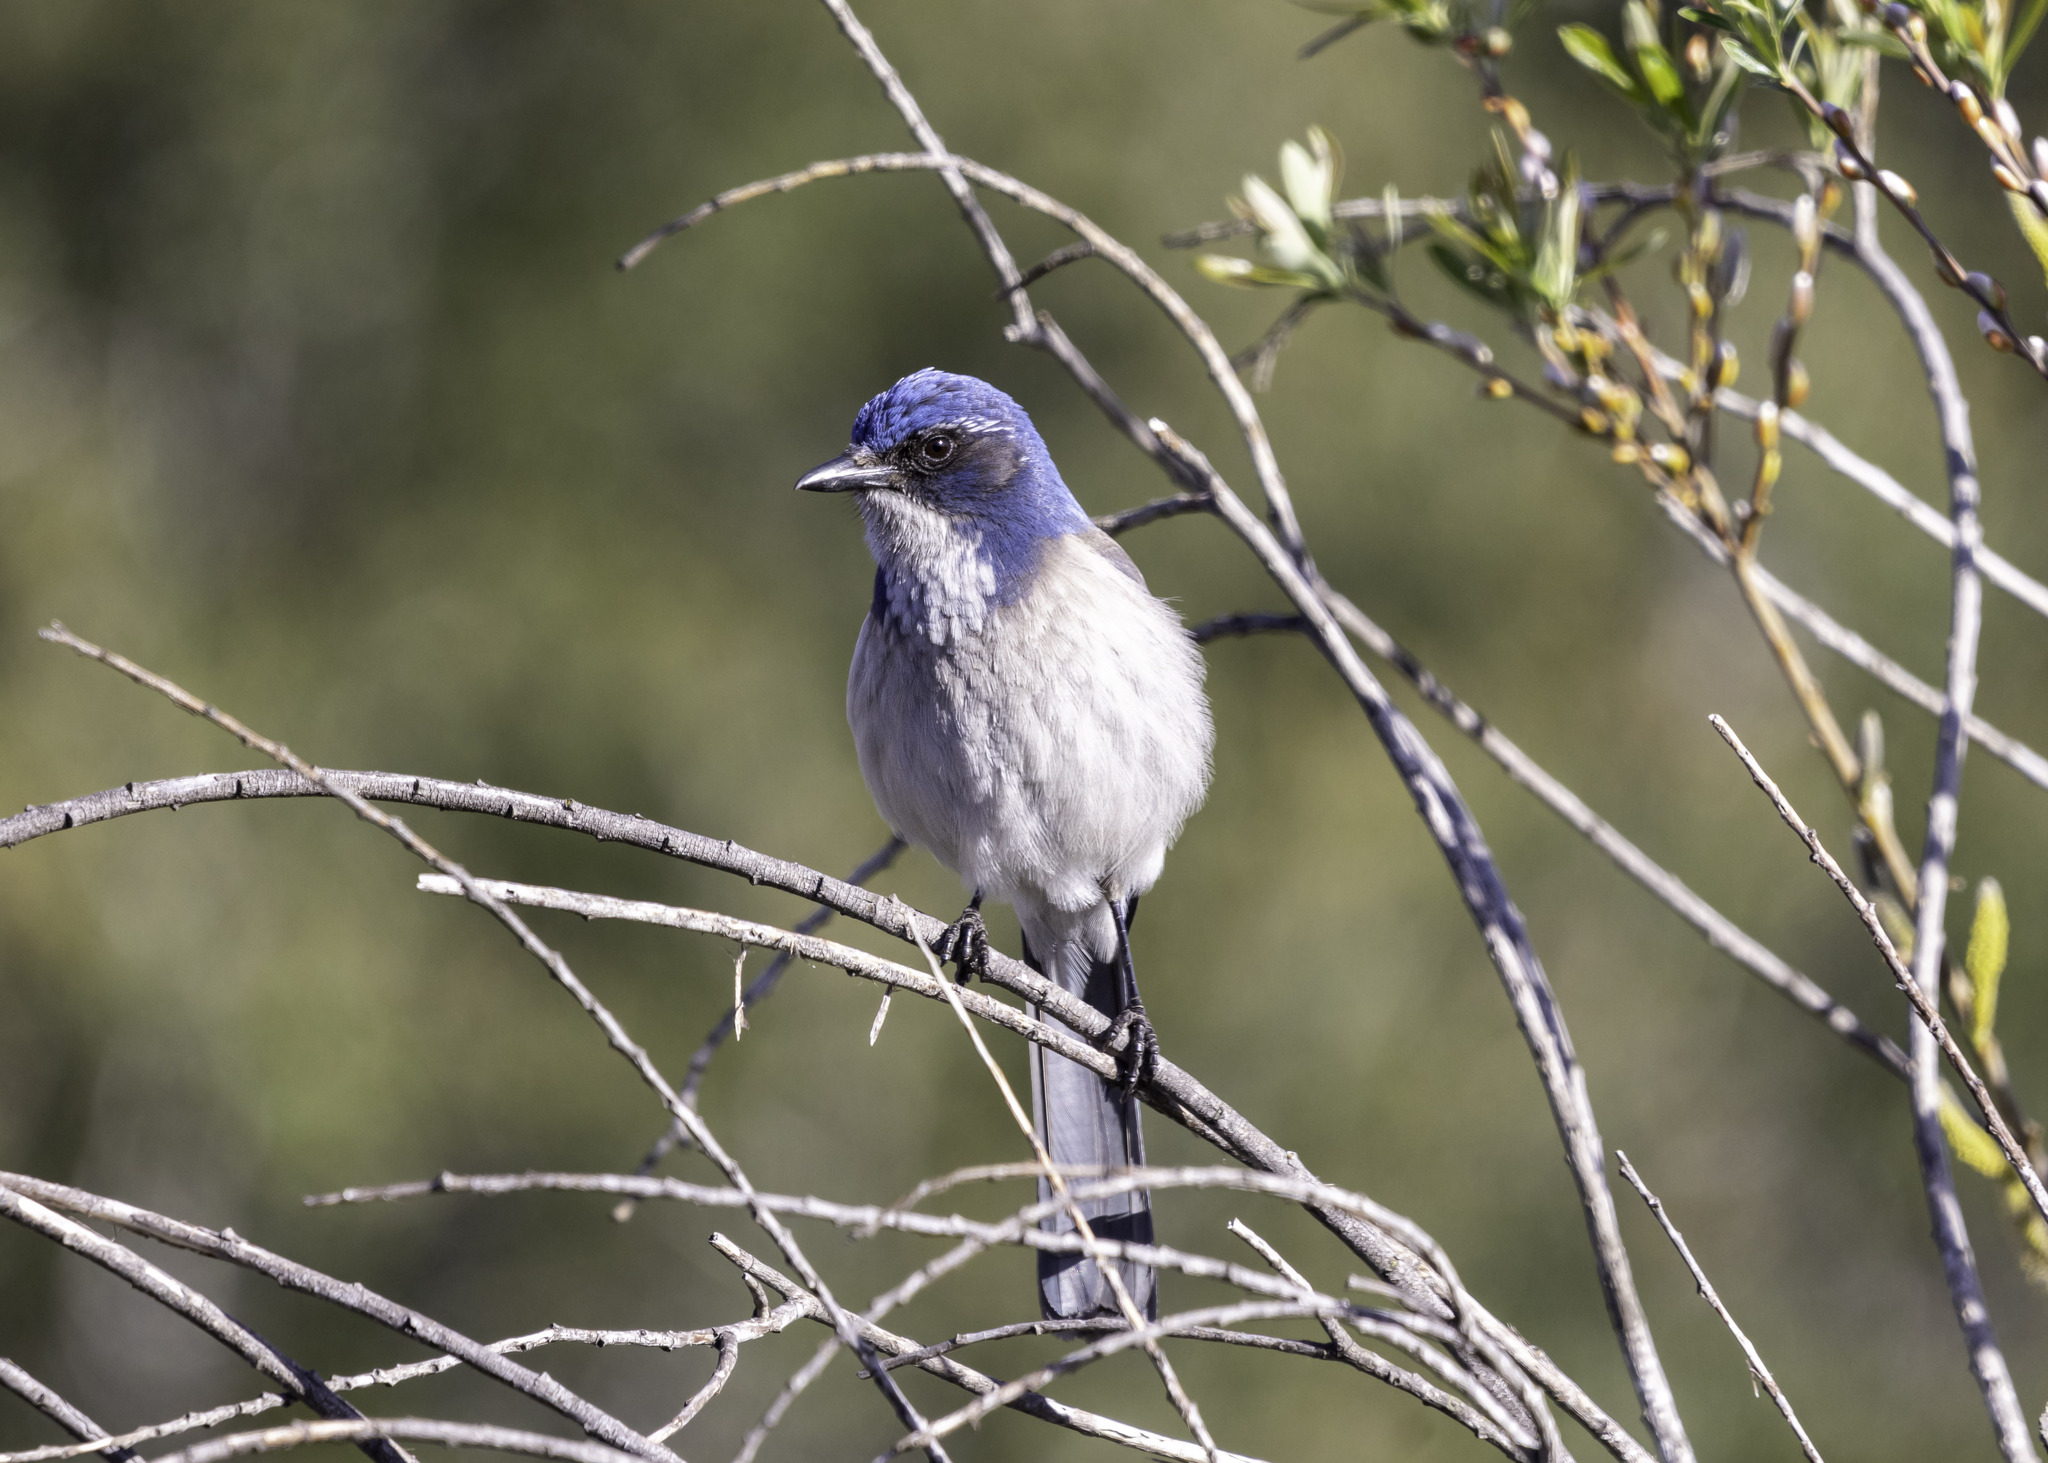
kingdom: Animalia
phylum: Chordata
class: Aves
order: Passeriformes
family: Corvidae
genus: Aphelocoma
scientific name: Aphelocoma californica
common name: California scrub-jay
